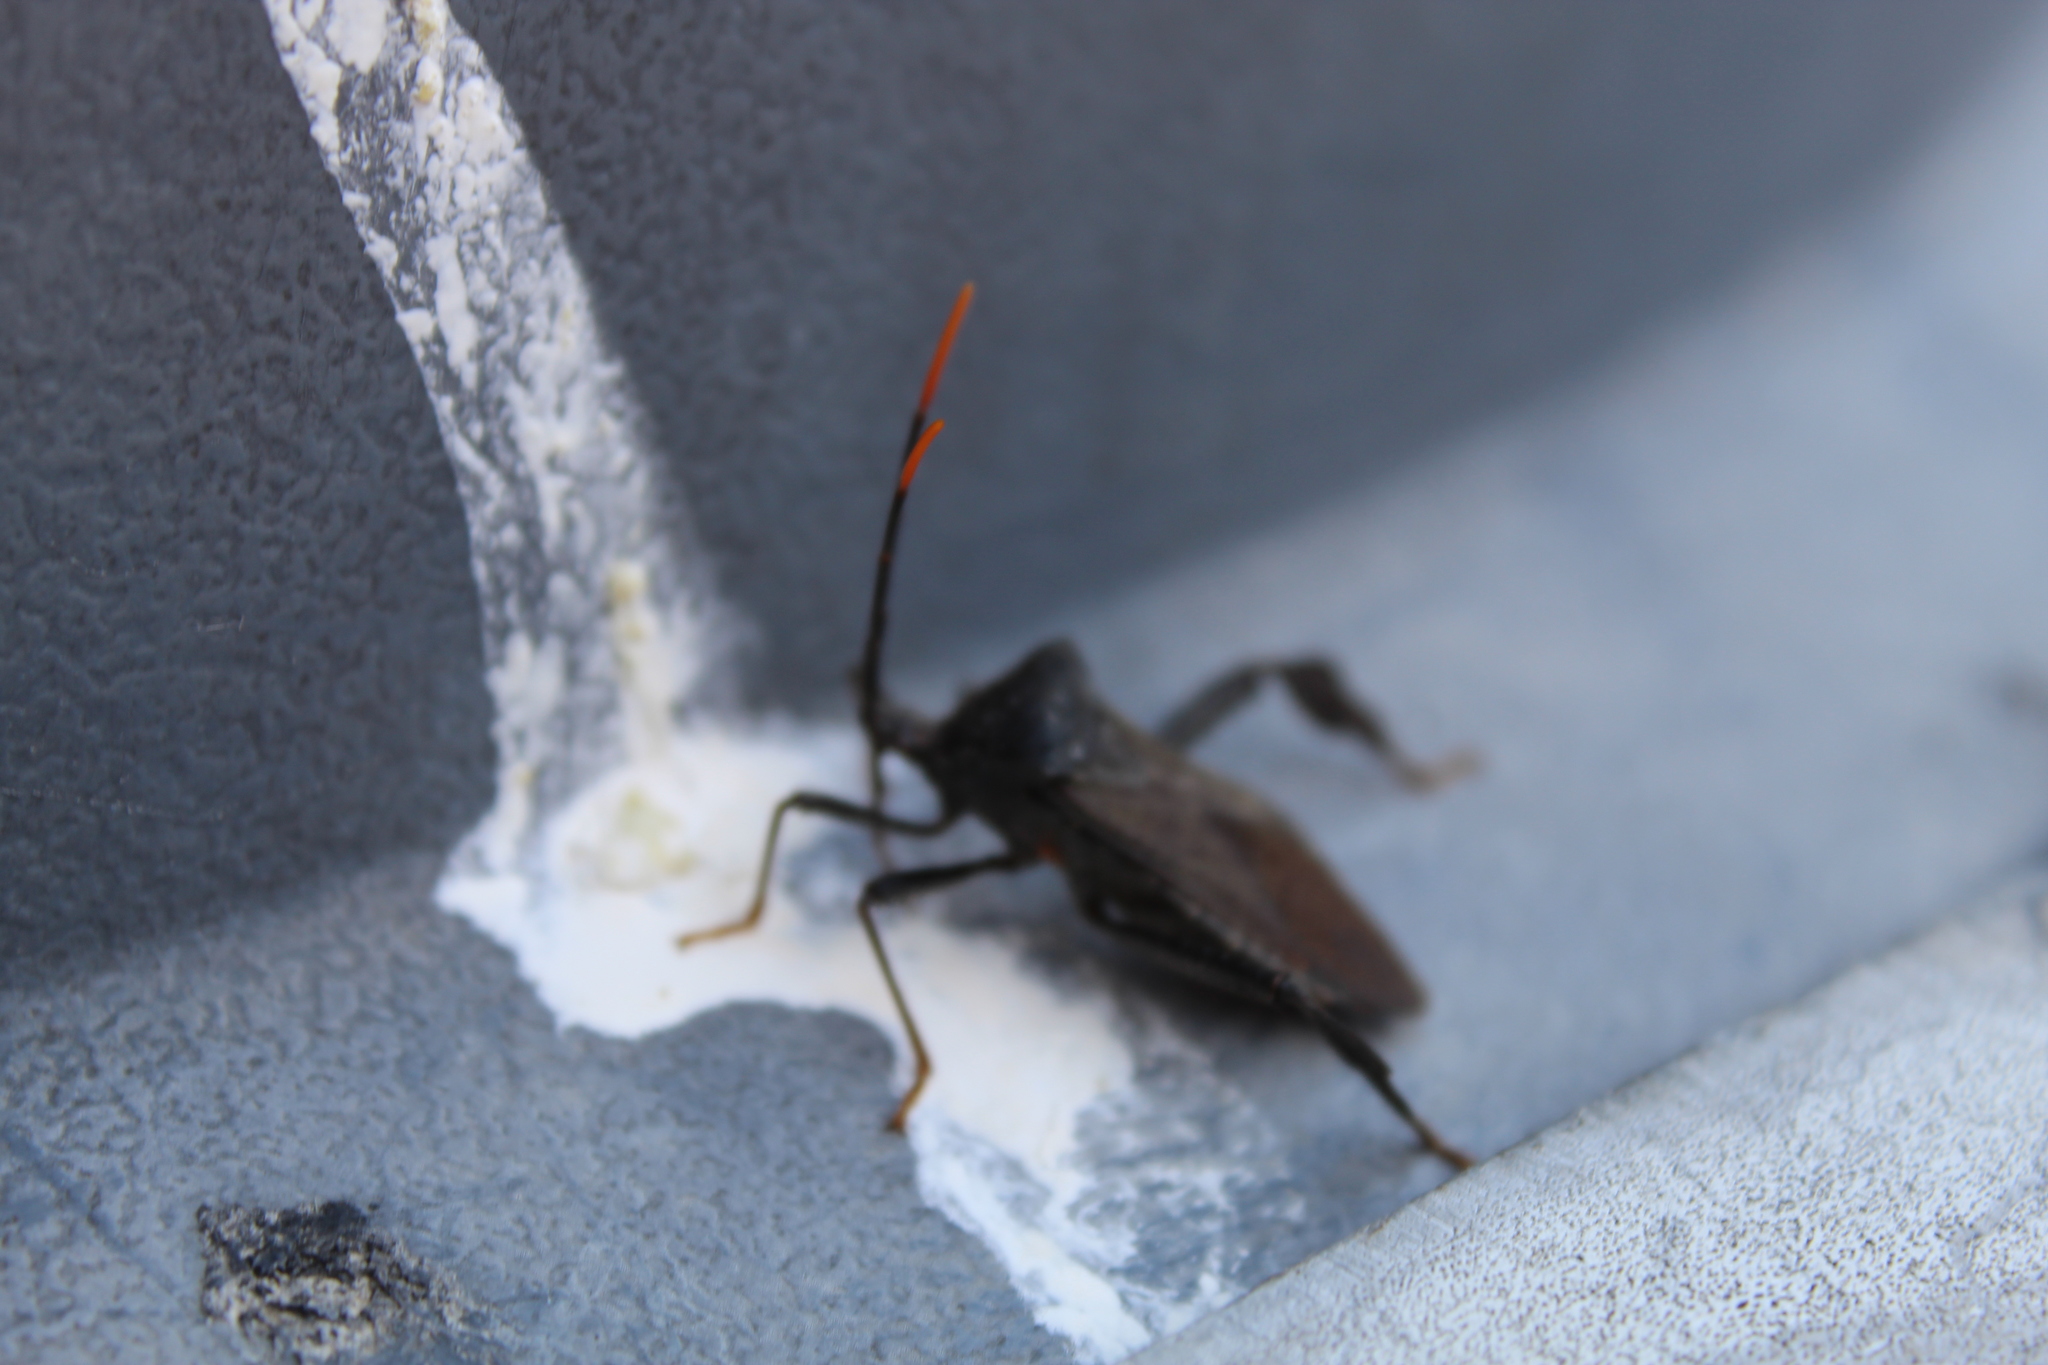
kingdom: Animalia
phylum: Arthropoda
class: Insecta
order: Hemiptera
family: Coreidae
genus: Acanthocephala
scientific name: Acanthocephala terminalis
